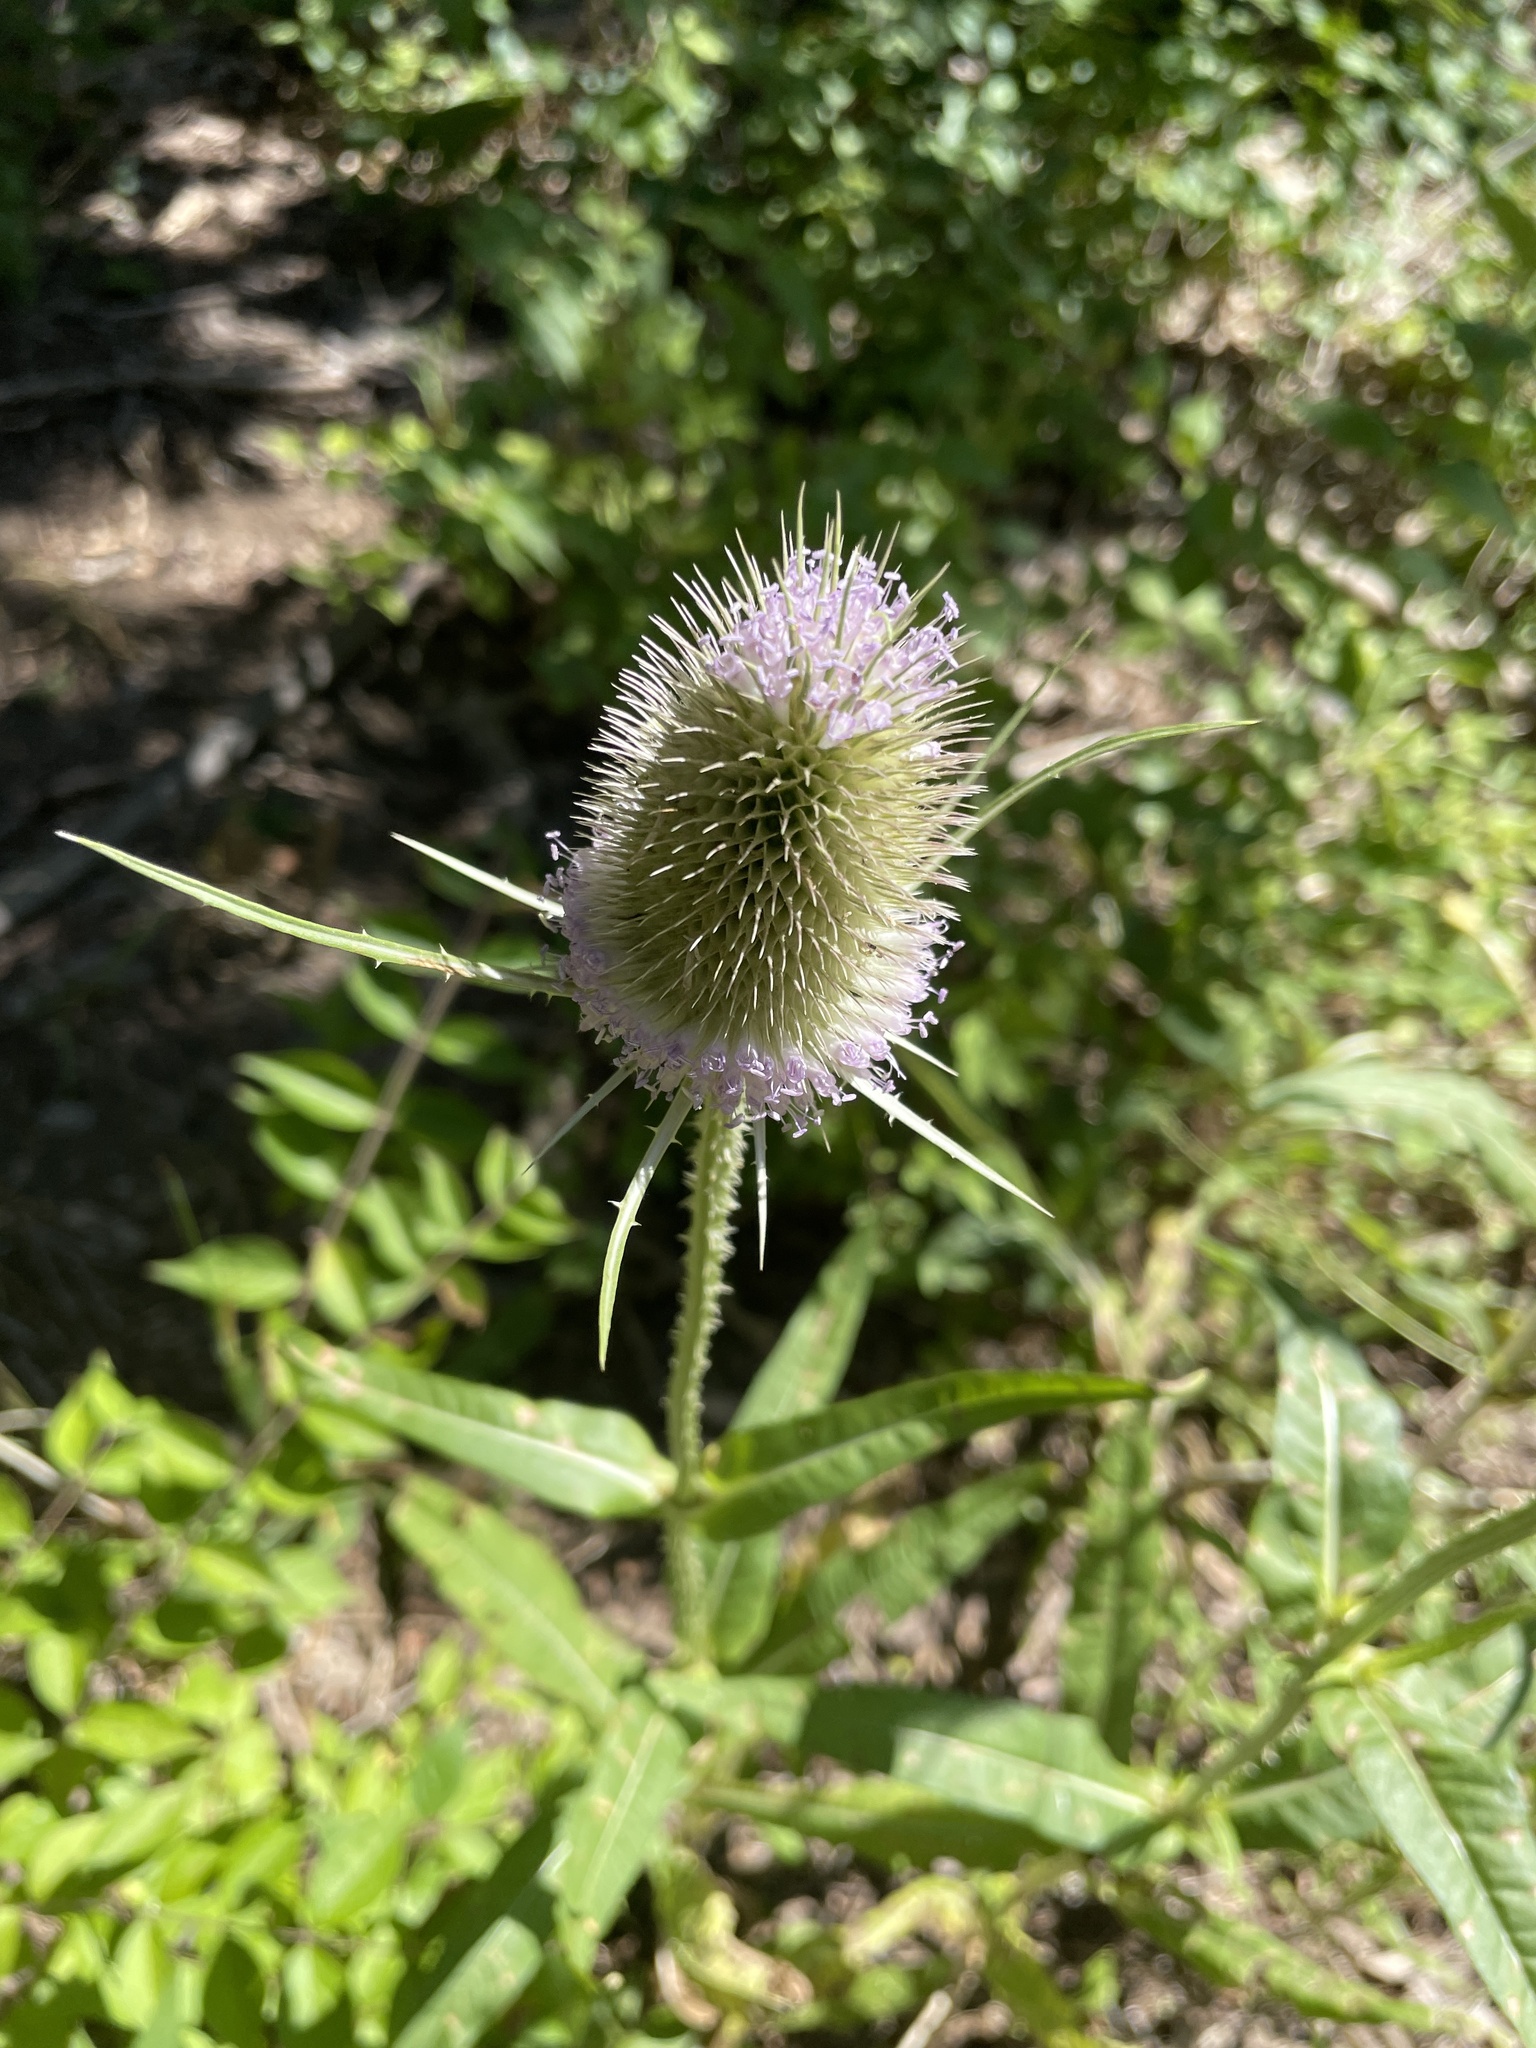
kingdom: Plantae
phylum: Tracheophyta
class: Magnoliopsida
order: Dipsacales
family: Caprifoliaceae
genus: Dipsacus
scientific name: Dipsacus fullonum
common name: Teasel
